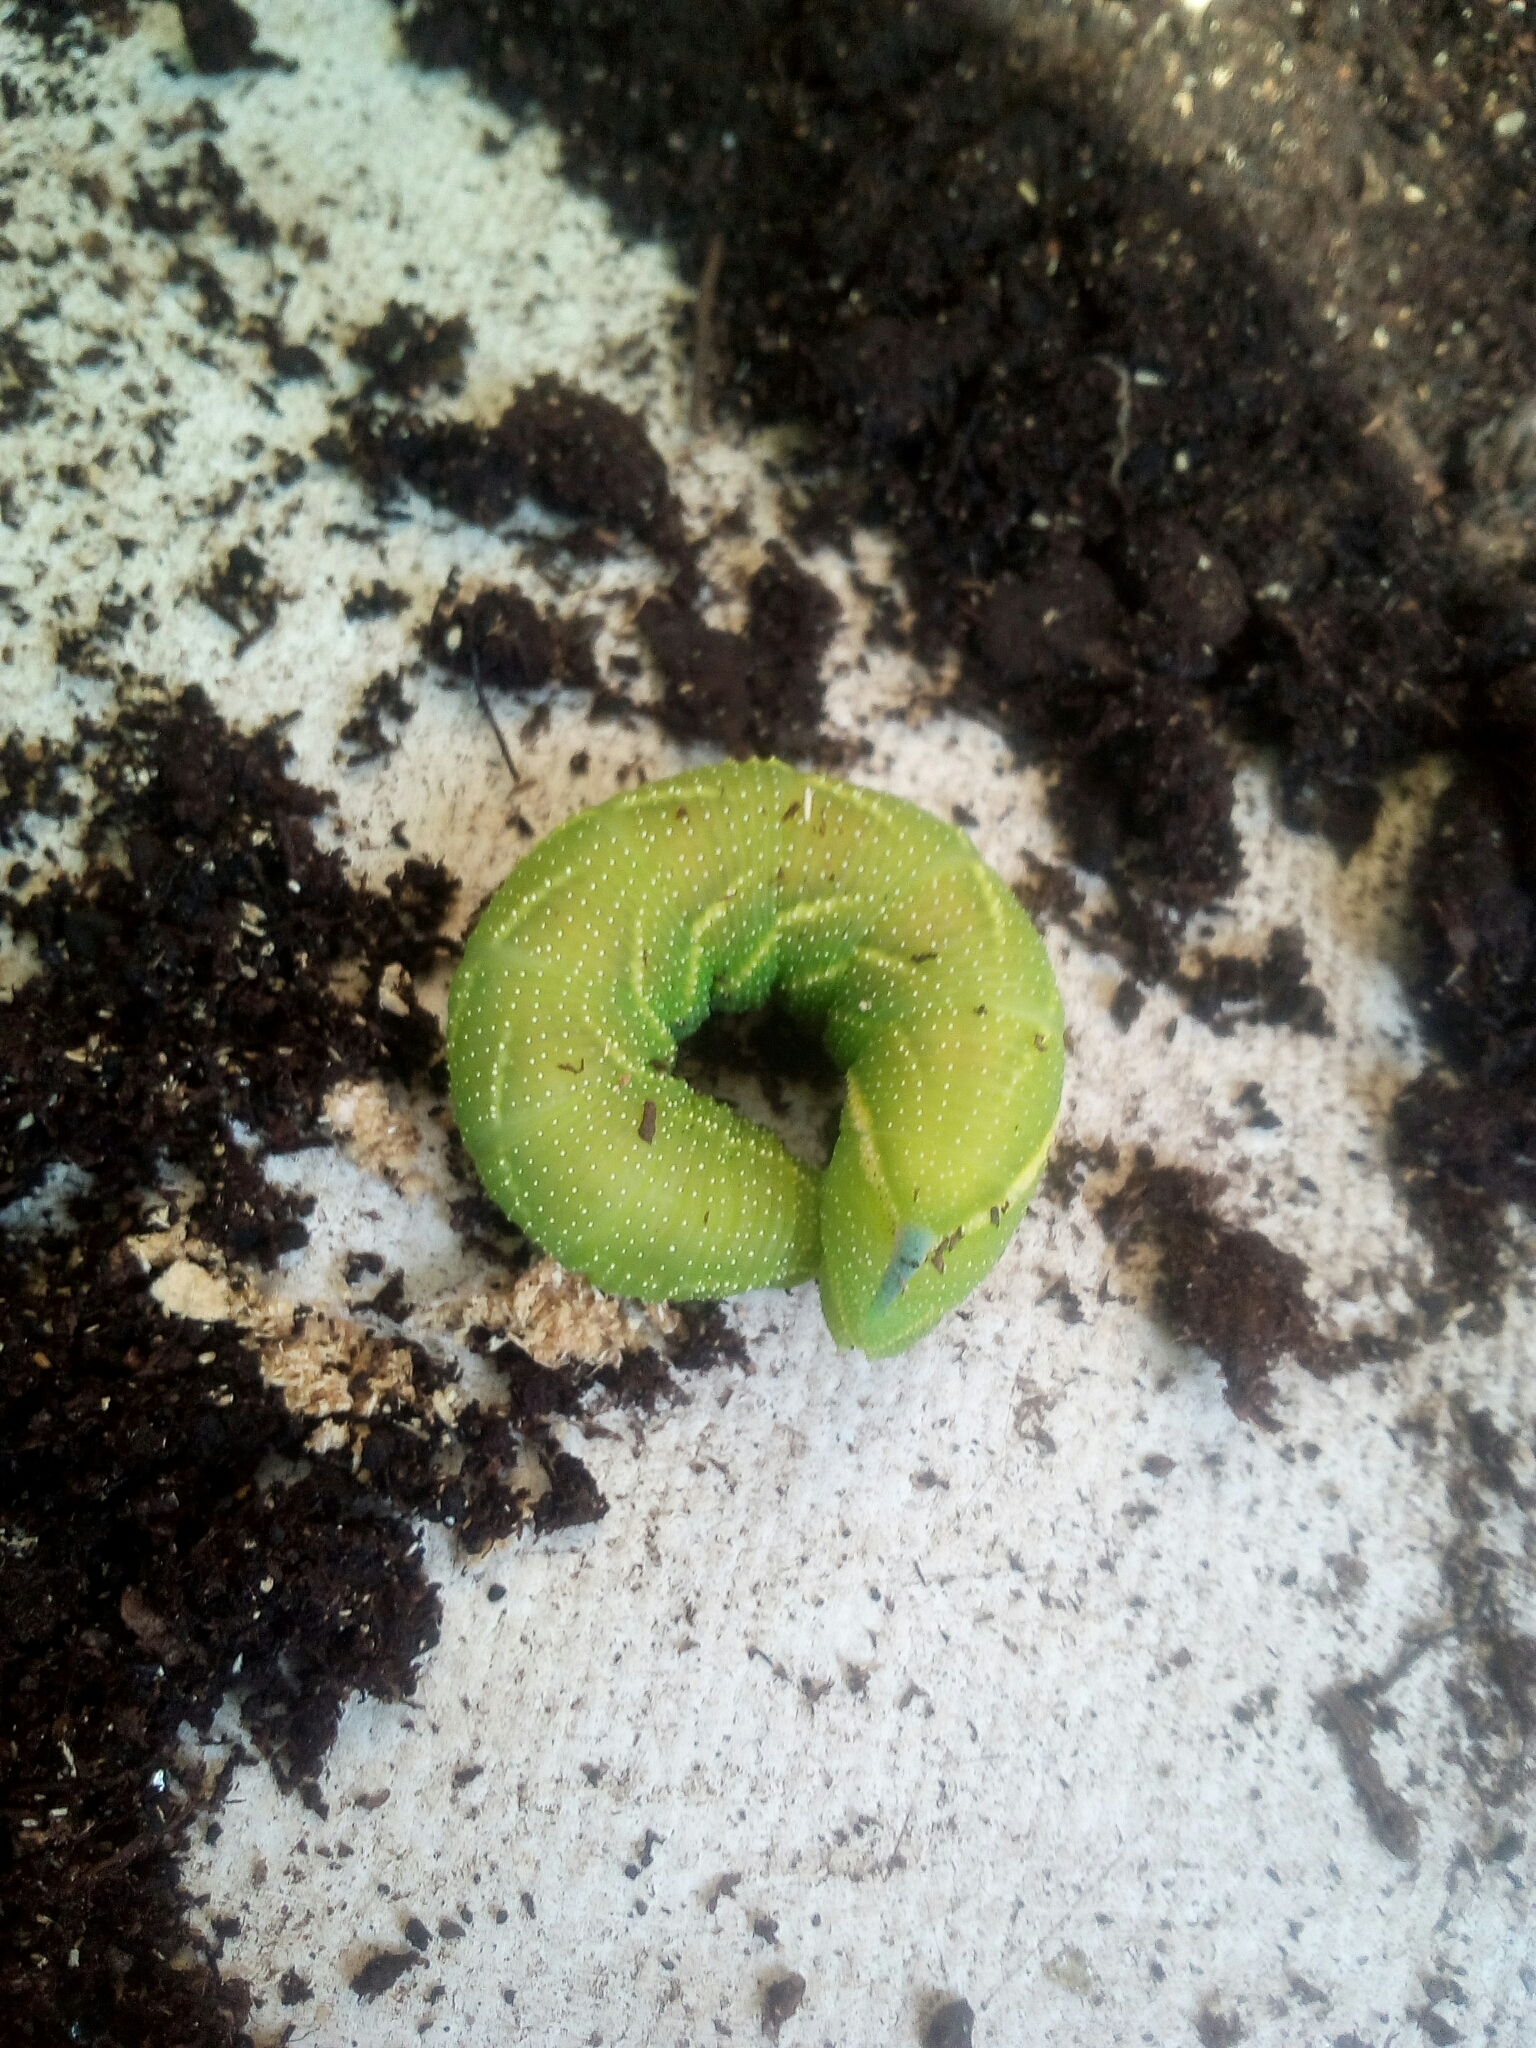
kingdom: Animalia
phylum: Arthropoda
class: Insecta
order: Lepidoptera
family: Sphingidae
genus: Smerinthus
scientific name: Smerinthus ocellata
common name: Eyed hawk-moth
